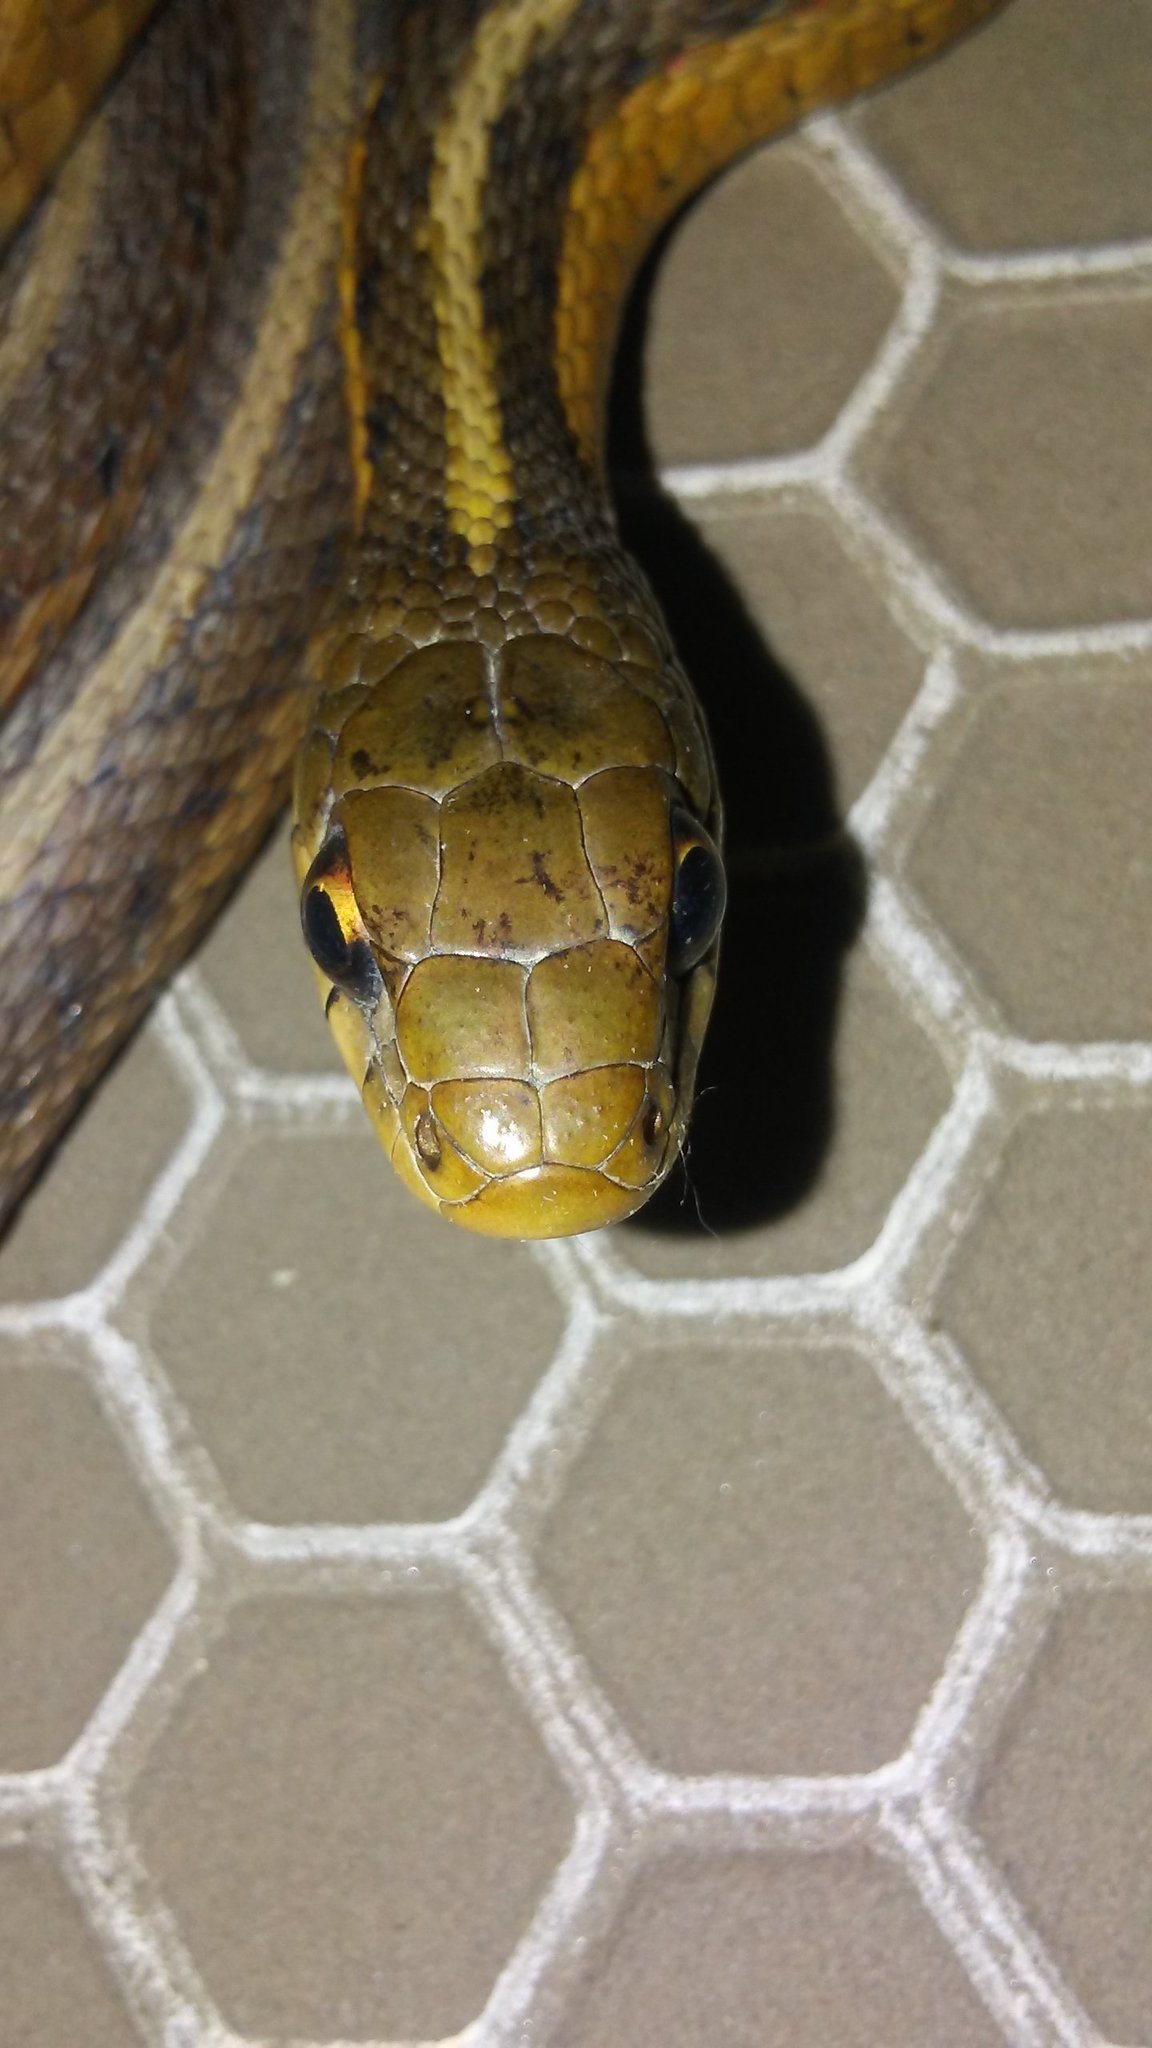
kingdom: Animalia
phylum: Chordata
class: Squamata
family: Colubridae
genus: Thamnophis
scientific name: Thamnophis sirtalis
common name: Common garter snake
